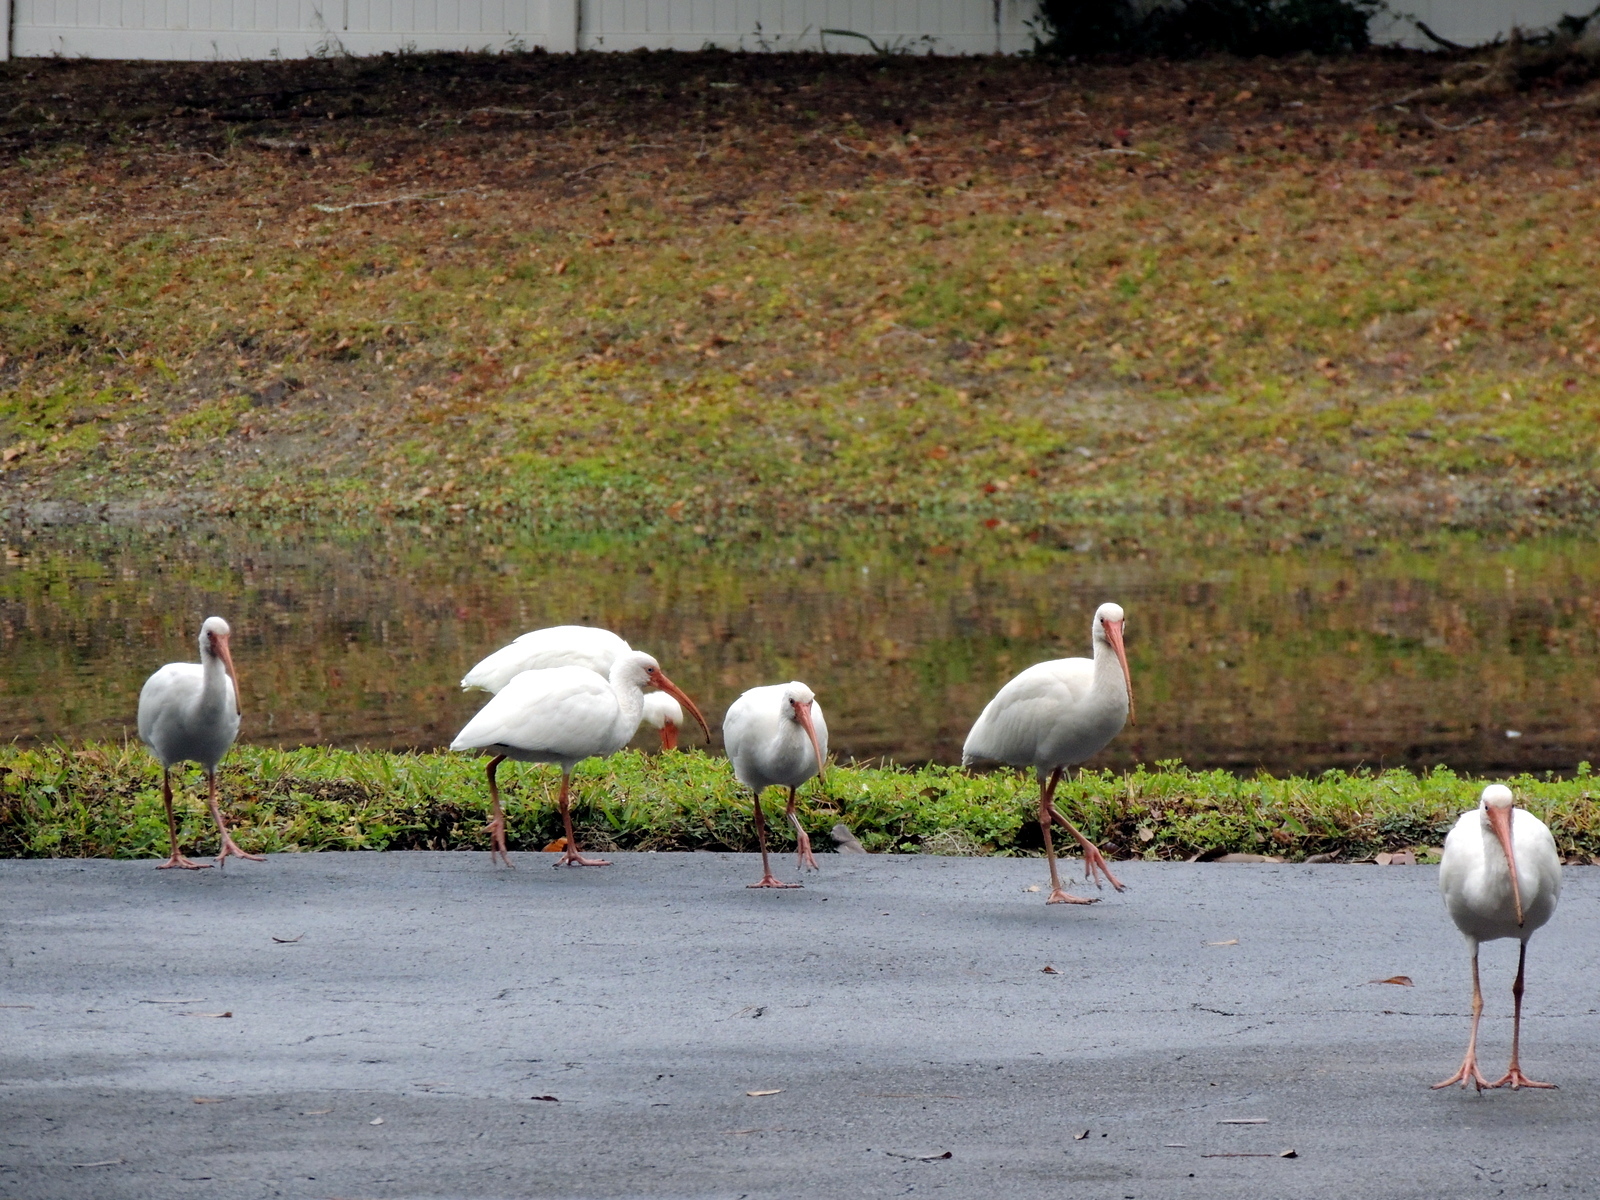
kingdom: Animalia
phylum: Chordata
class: Aves
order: Pelecaniformes
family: Threskiornithidae
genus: Eudocimus
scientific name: Eudocimus albus
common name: White ibis
